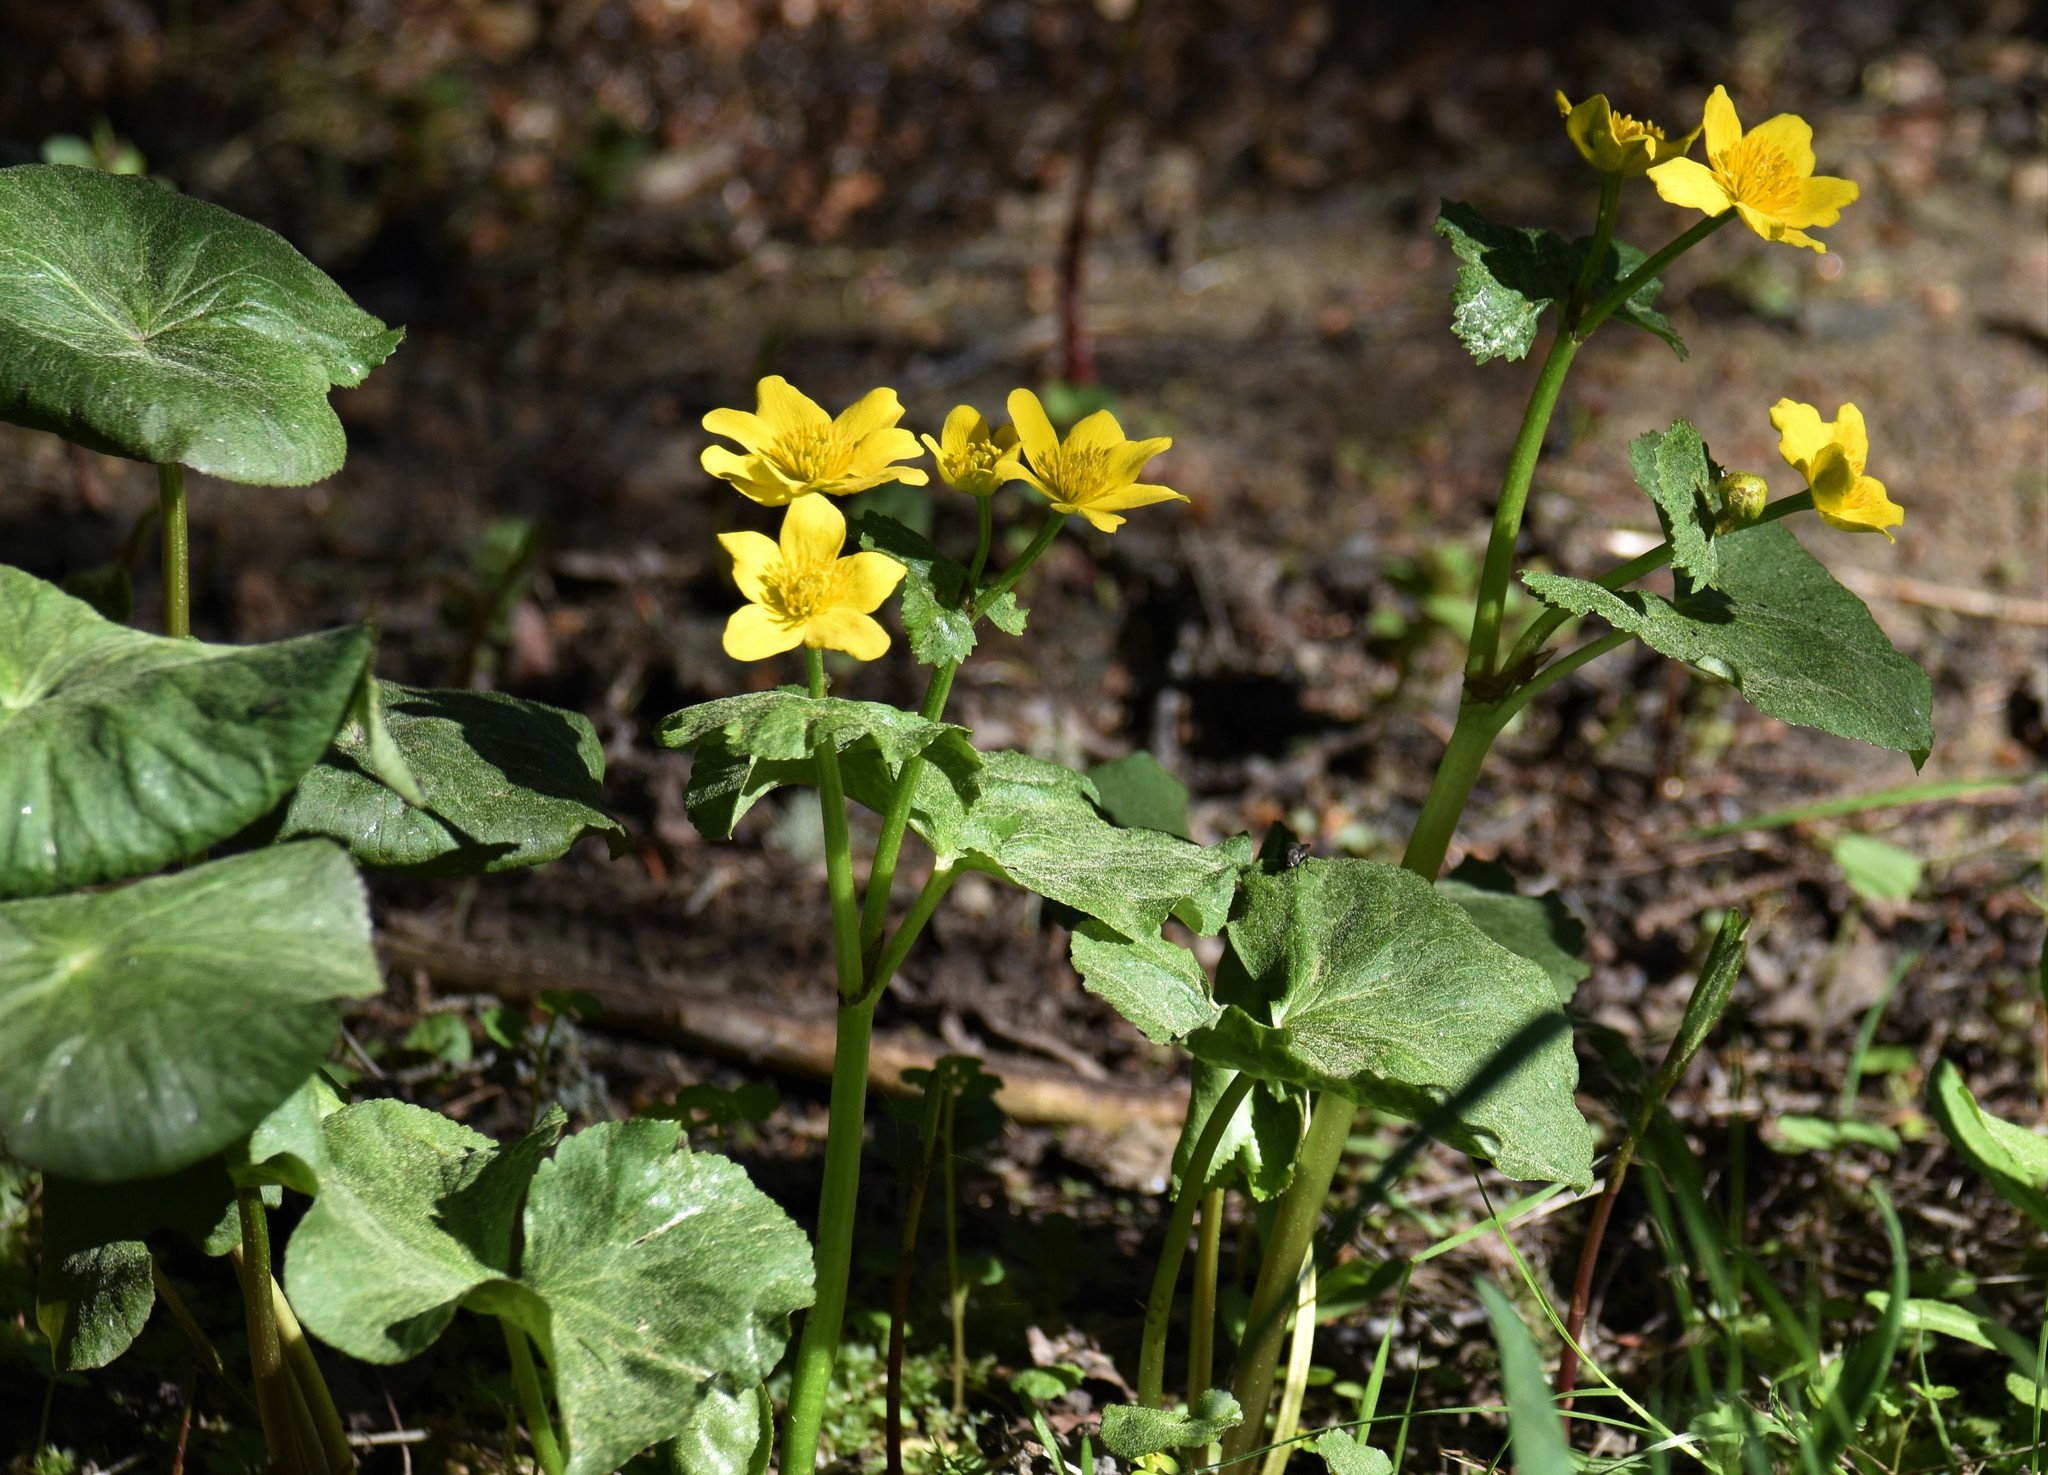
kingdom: Plantae
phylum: Tracheophyta
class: Magnoliopsida
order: Ranunculales
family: Ranunculaceae
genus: Caltha
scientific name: Caltha palustris
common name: Marsh marigold
